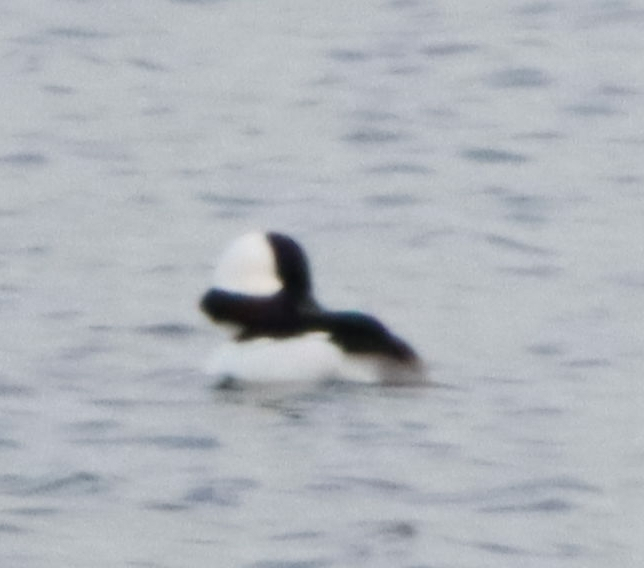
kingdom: Animalia
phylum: Chordata
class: Aves
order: Anseriformes
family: Anatidae
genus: Bucephala
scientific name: Bucephala albeola
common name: Bufflehead
